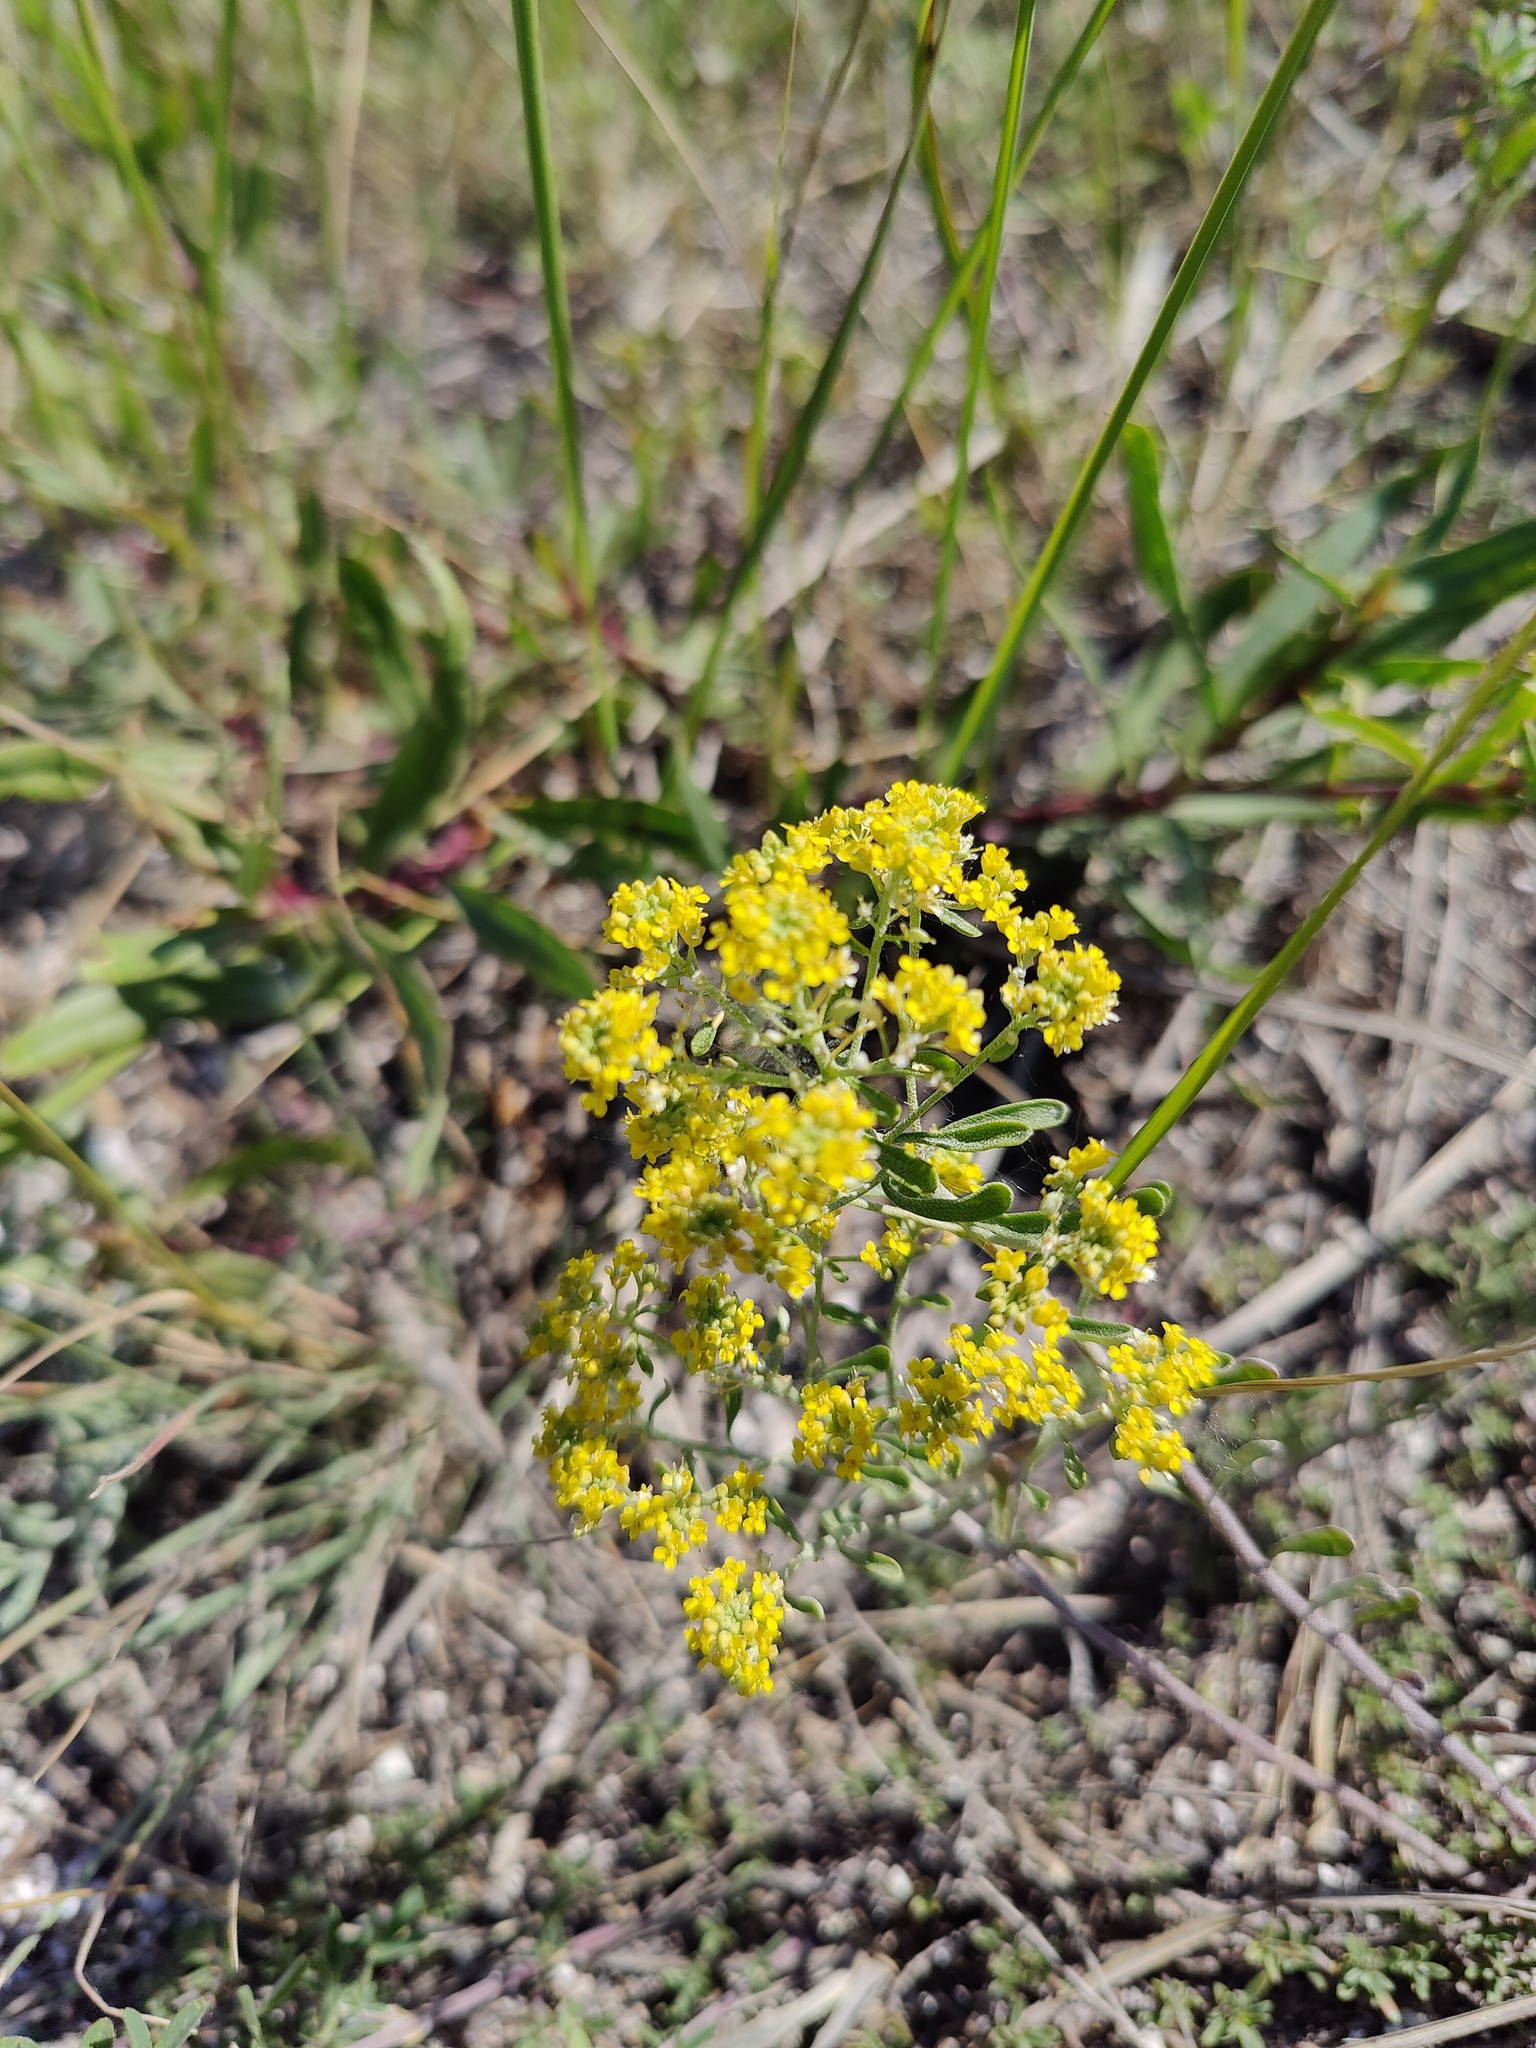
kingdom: Plantae
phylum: Tracheophyta
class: Magnoliopsida
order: Brassicales
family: Brassicaceae
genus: Odontarrhena
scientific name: Odontarrhena tortuosa
